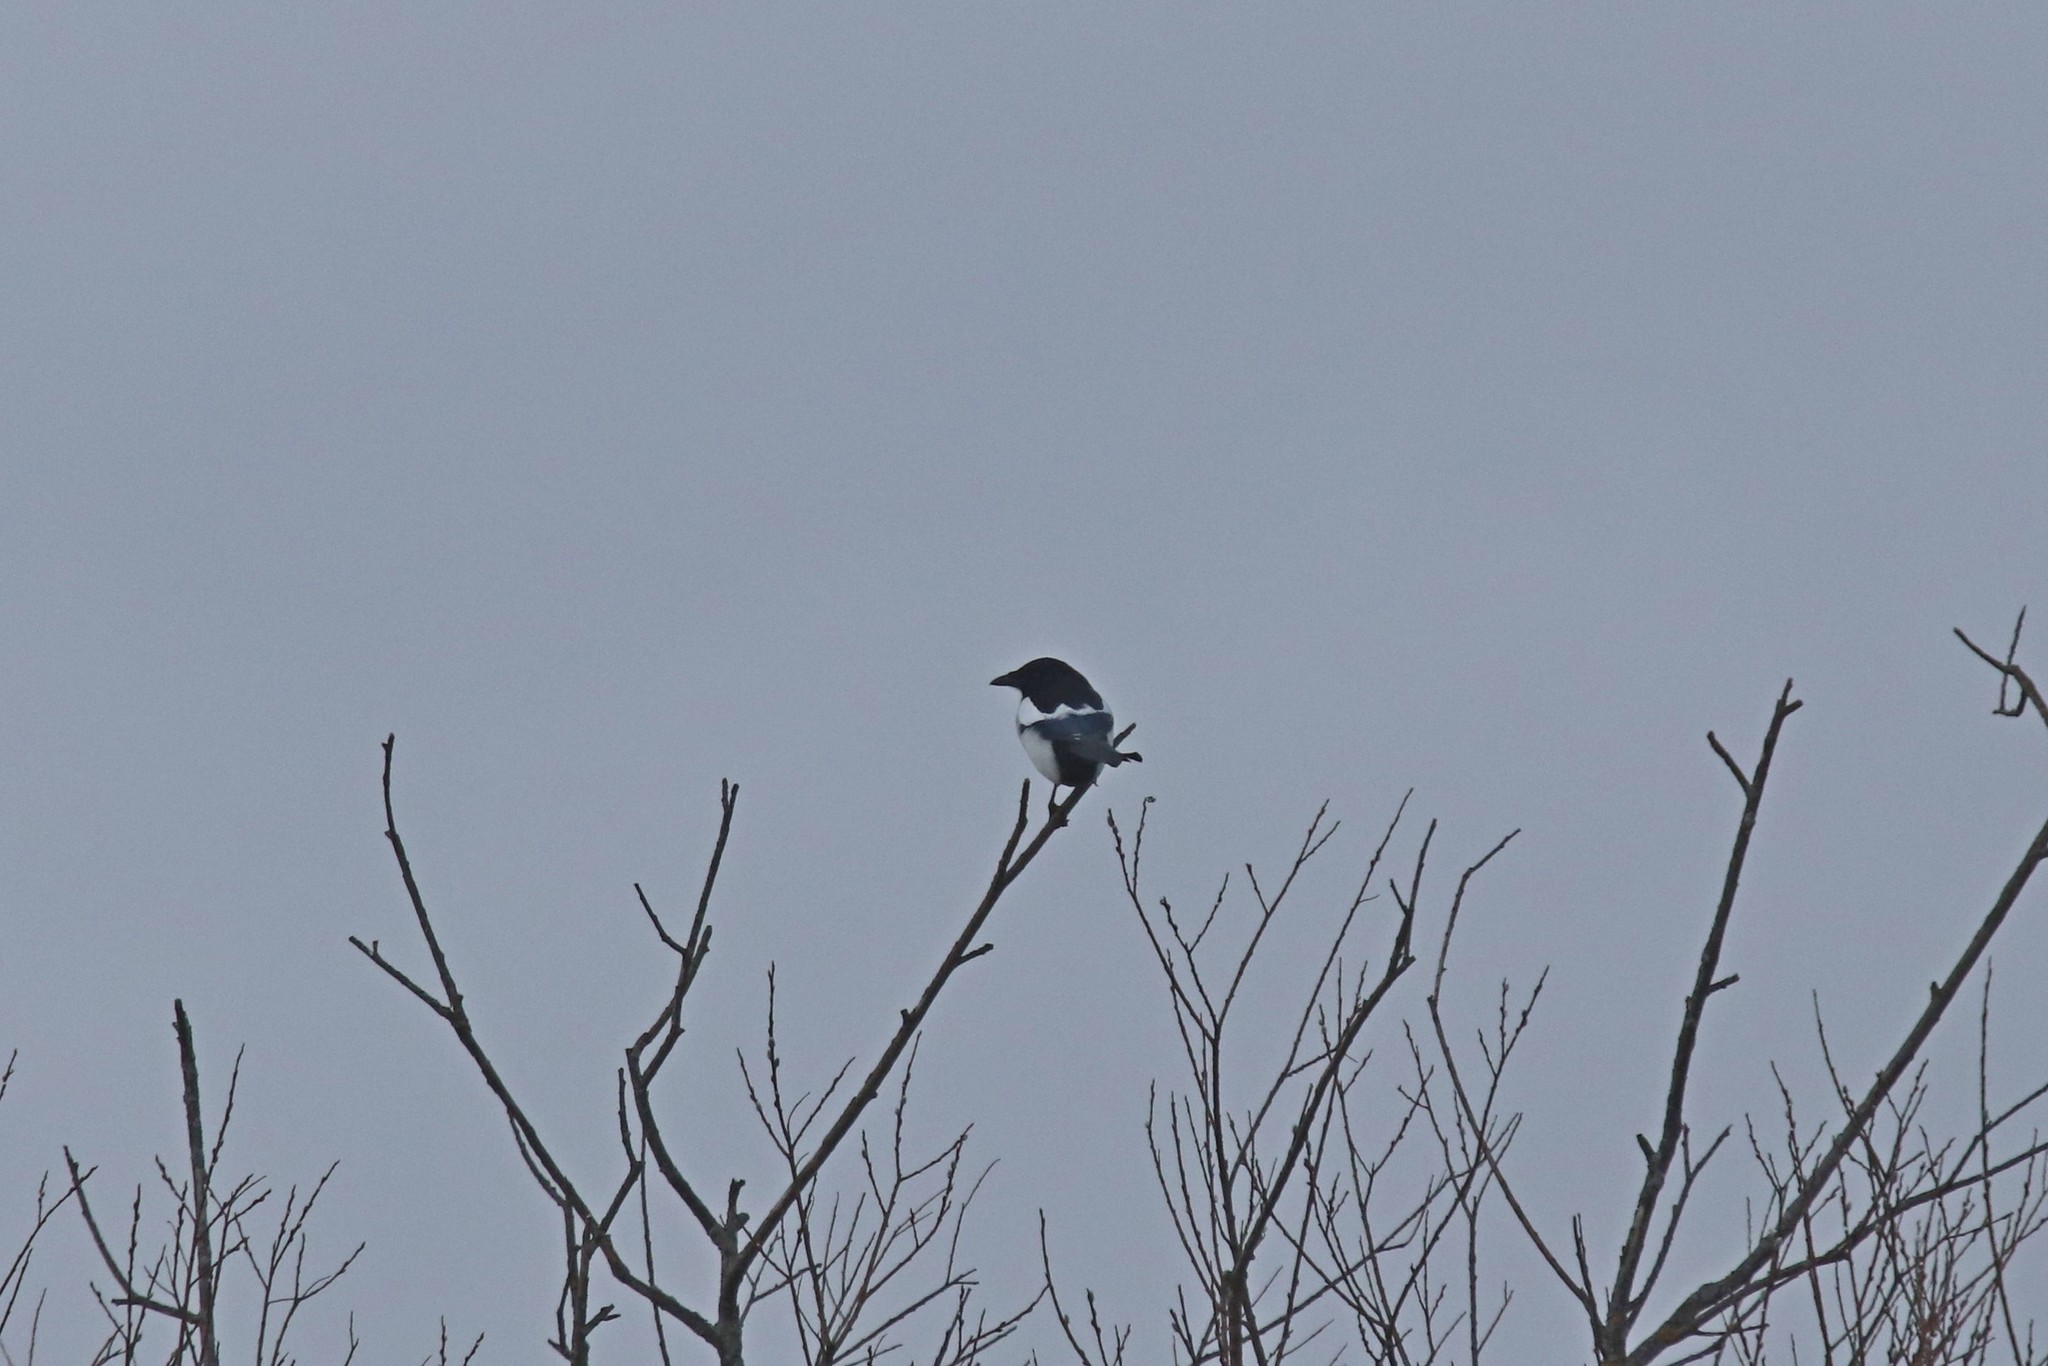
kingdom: Animalia
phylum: Chordata
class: Aves
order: Passeriformes
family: Corvidae
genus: Pica
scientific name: Pica pica
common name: Eurasian magpie
